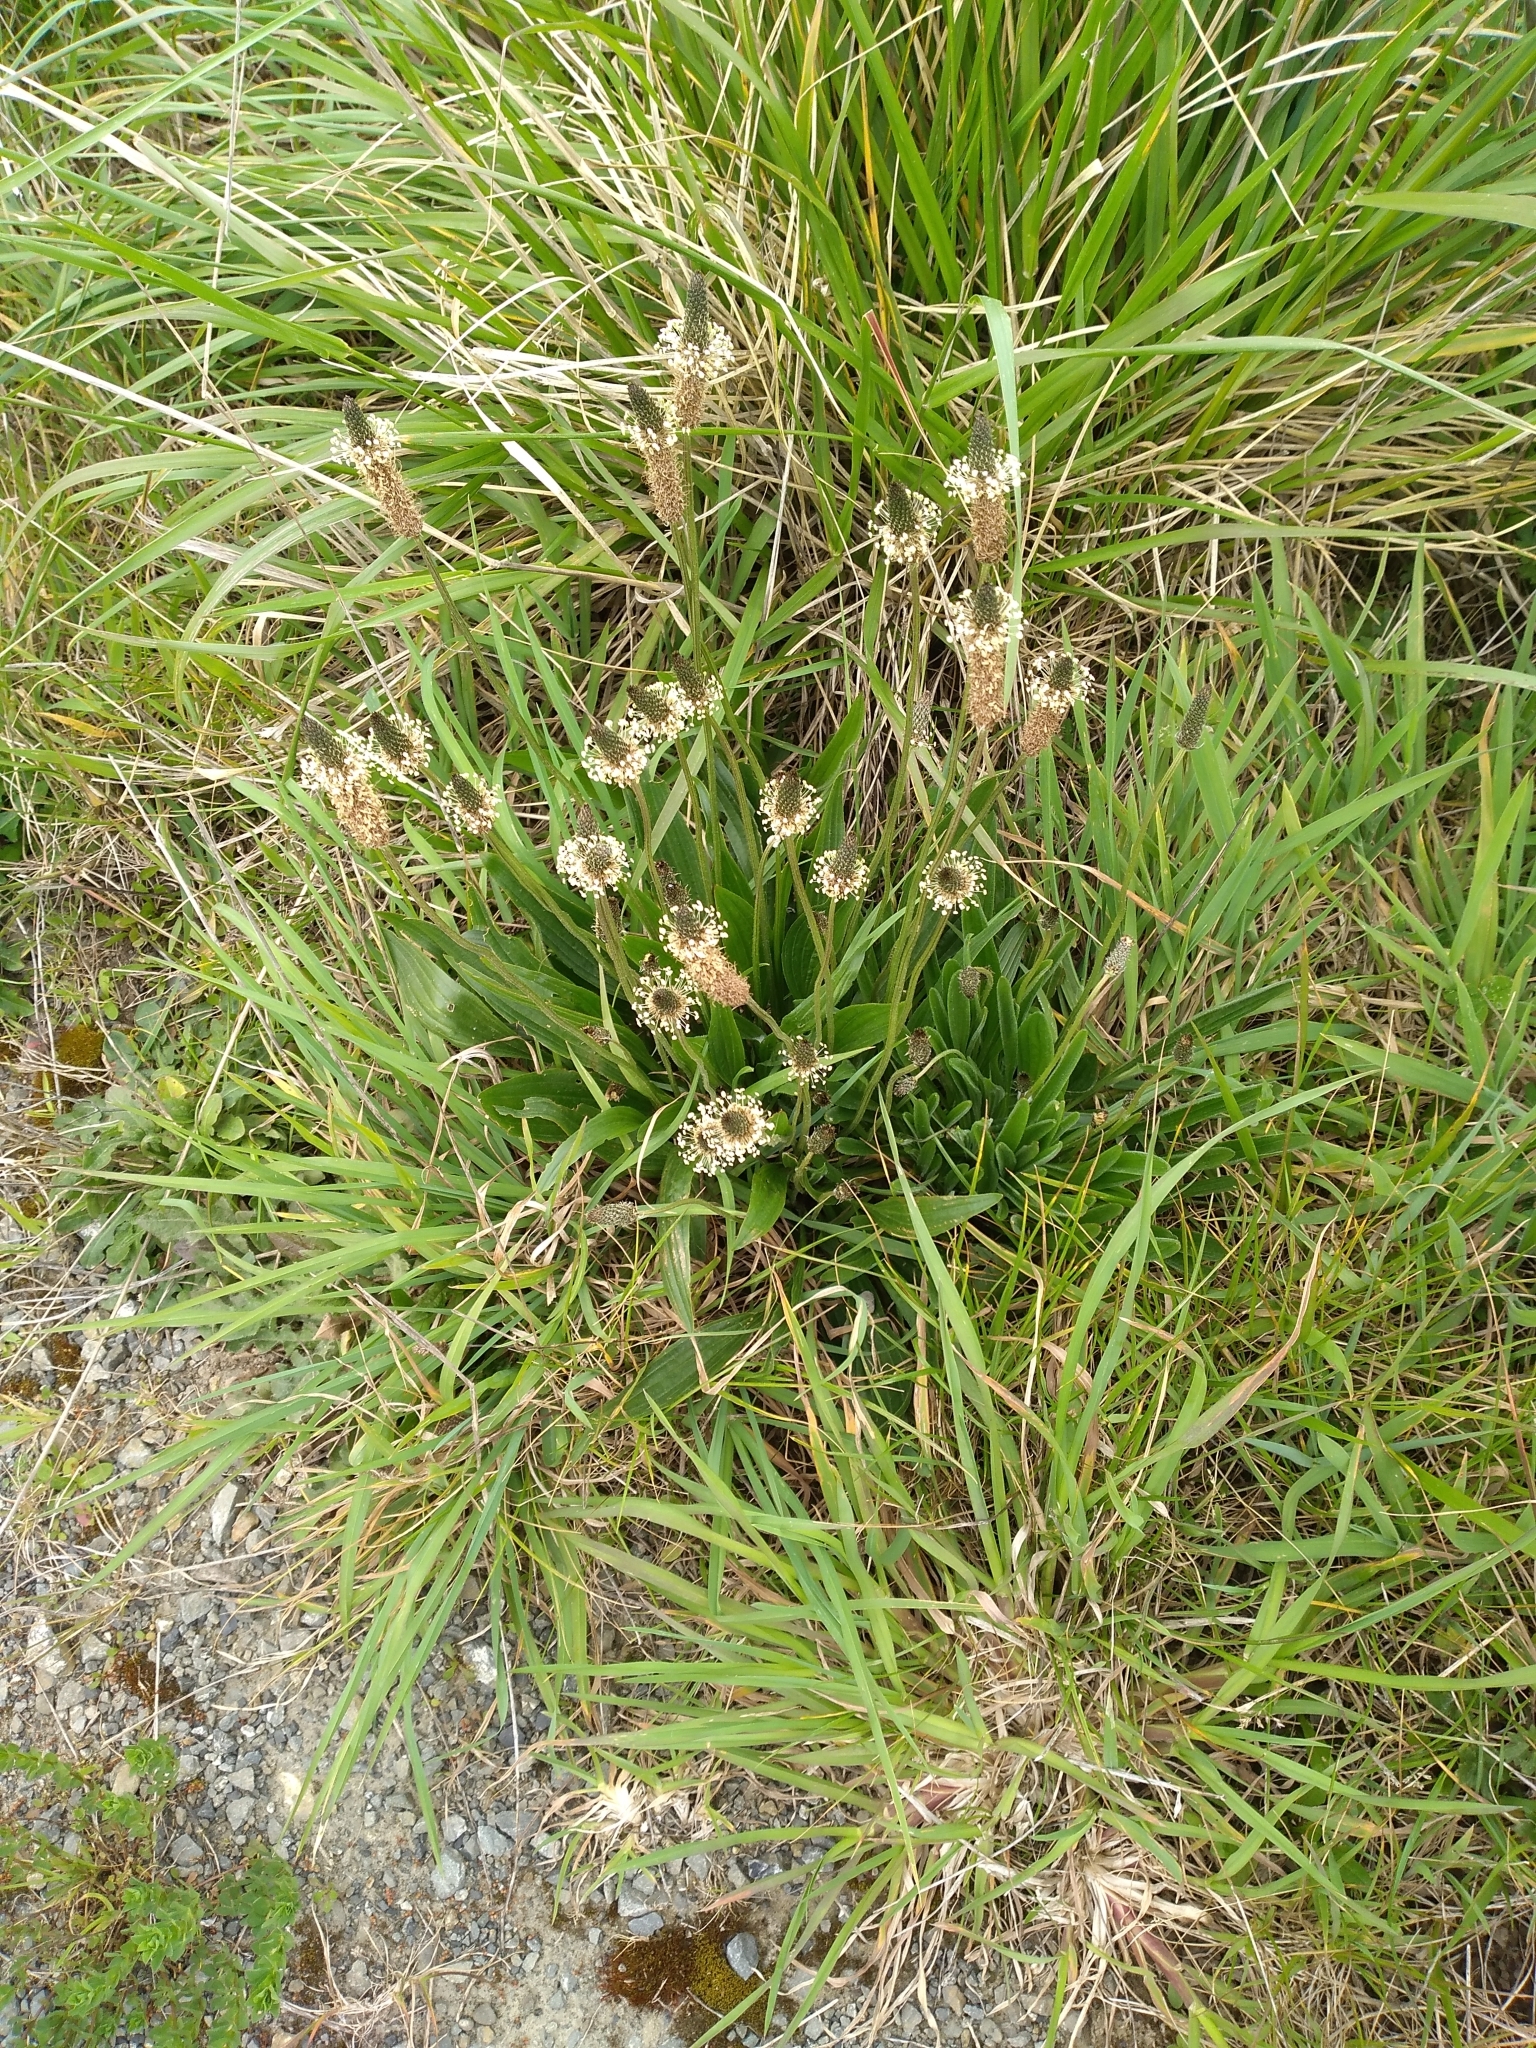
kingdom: Plantae
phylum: Tracheophyta
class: Magnoliopsida
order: Lamiales
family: Plantaginaceae
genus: Plantago
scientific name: Plantago lanceolata
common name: Ribwort plantain
